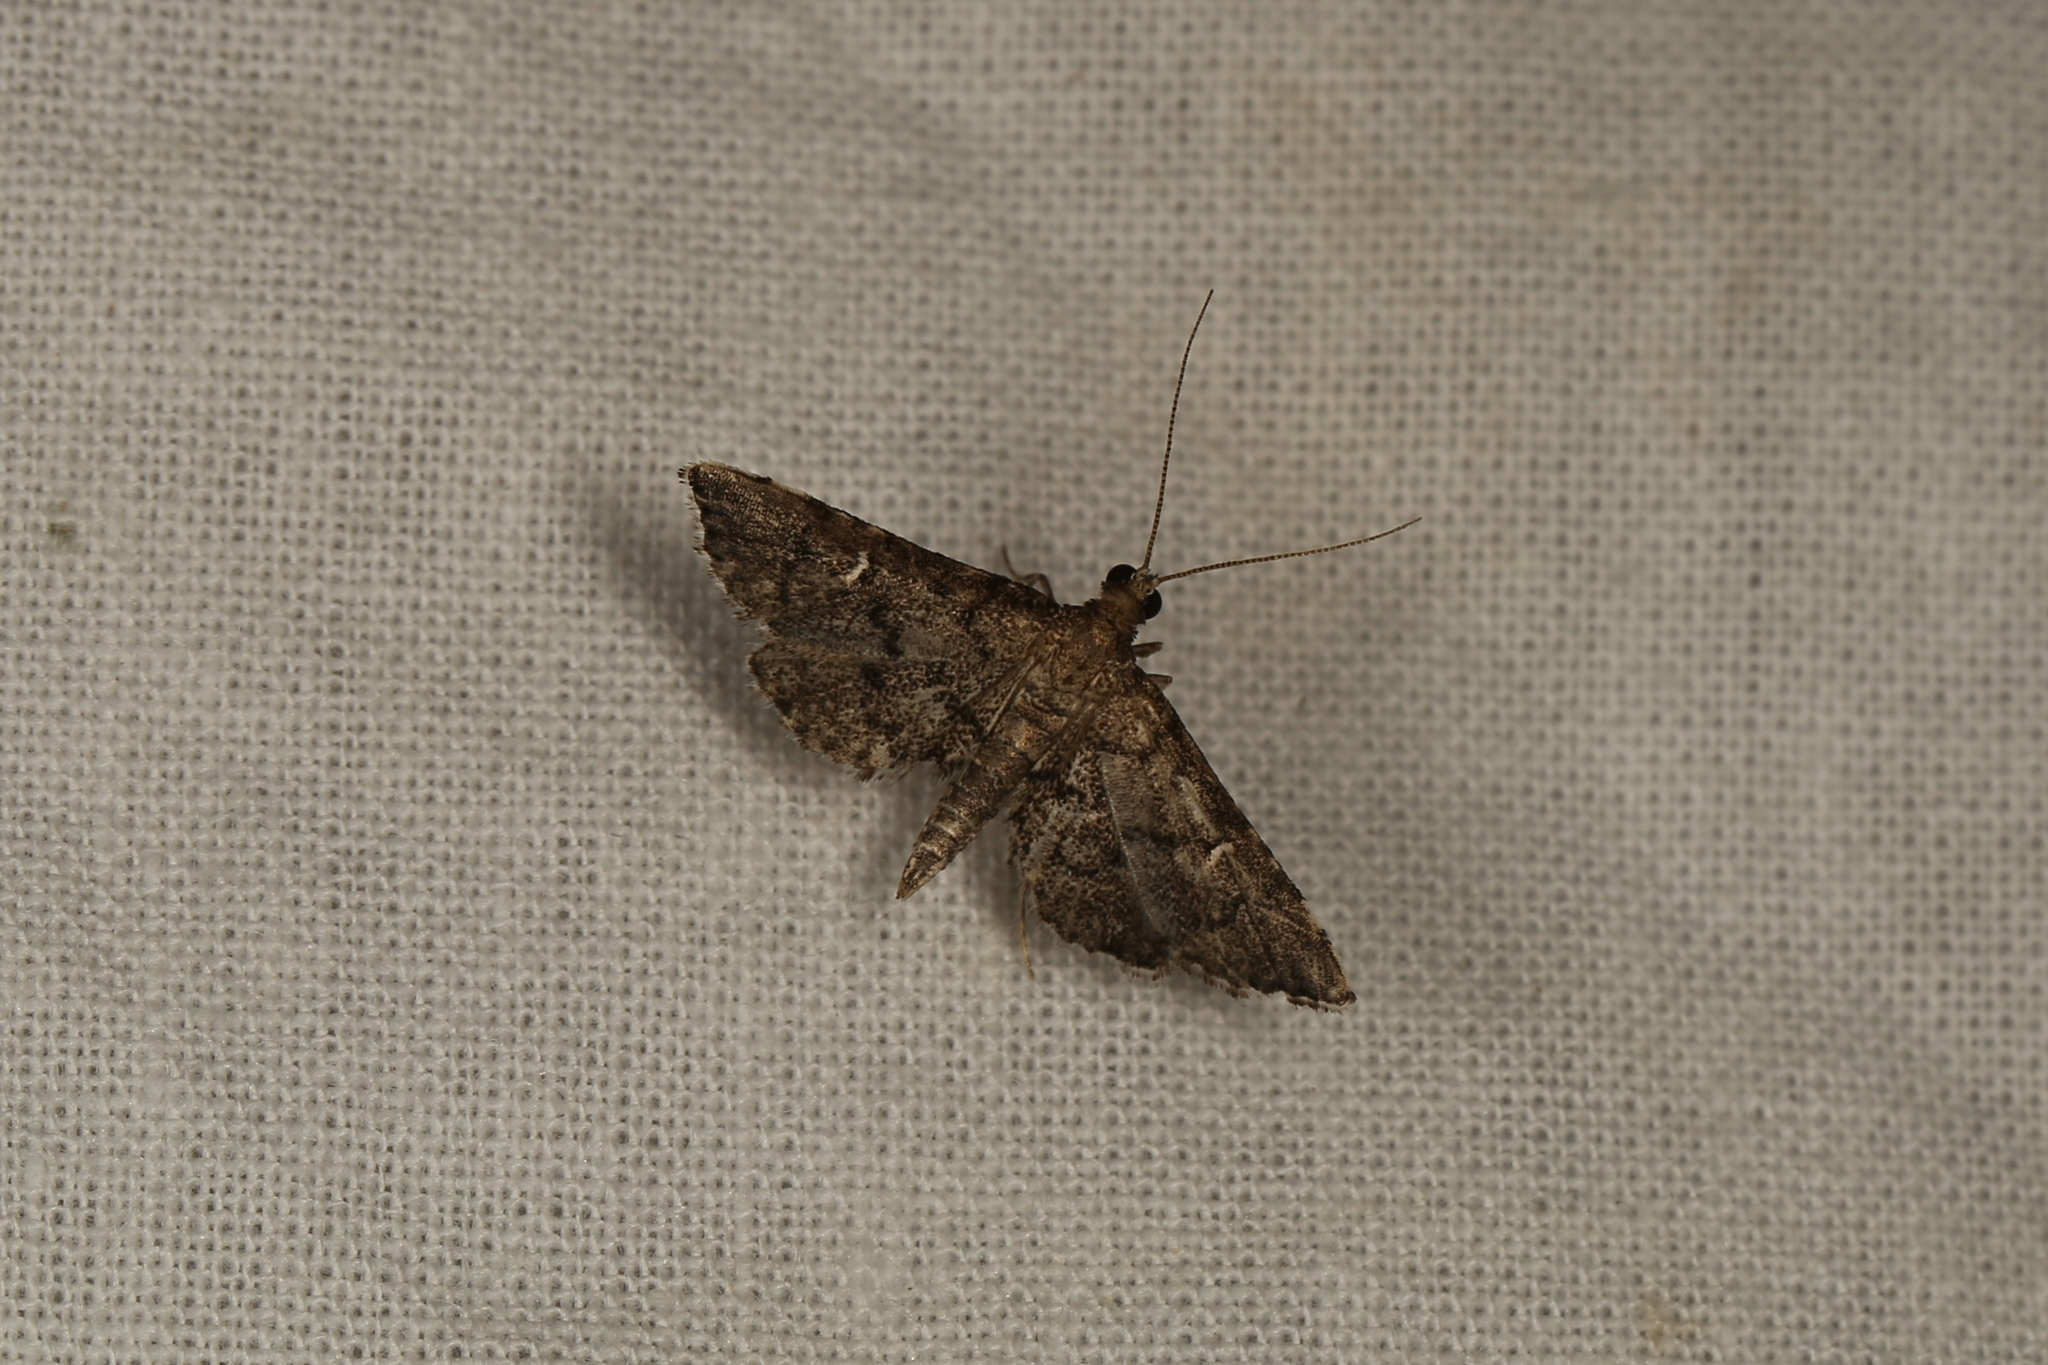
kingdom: Animalia
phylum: Arthropoda
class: Insecta
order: Lepidoptera
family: Crambidae
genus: Metasia
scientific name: Metasia capnochroa
